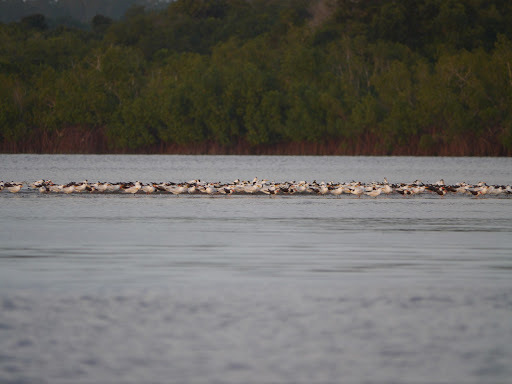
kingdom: Animalia
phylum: Chordata
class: Aves
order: Charadriiformes
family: Laridae
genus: Thalasseus
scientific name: Thalasseus albididorsalis
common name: West african crested tern
